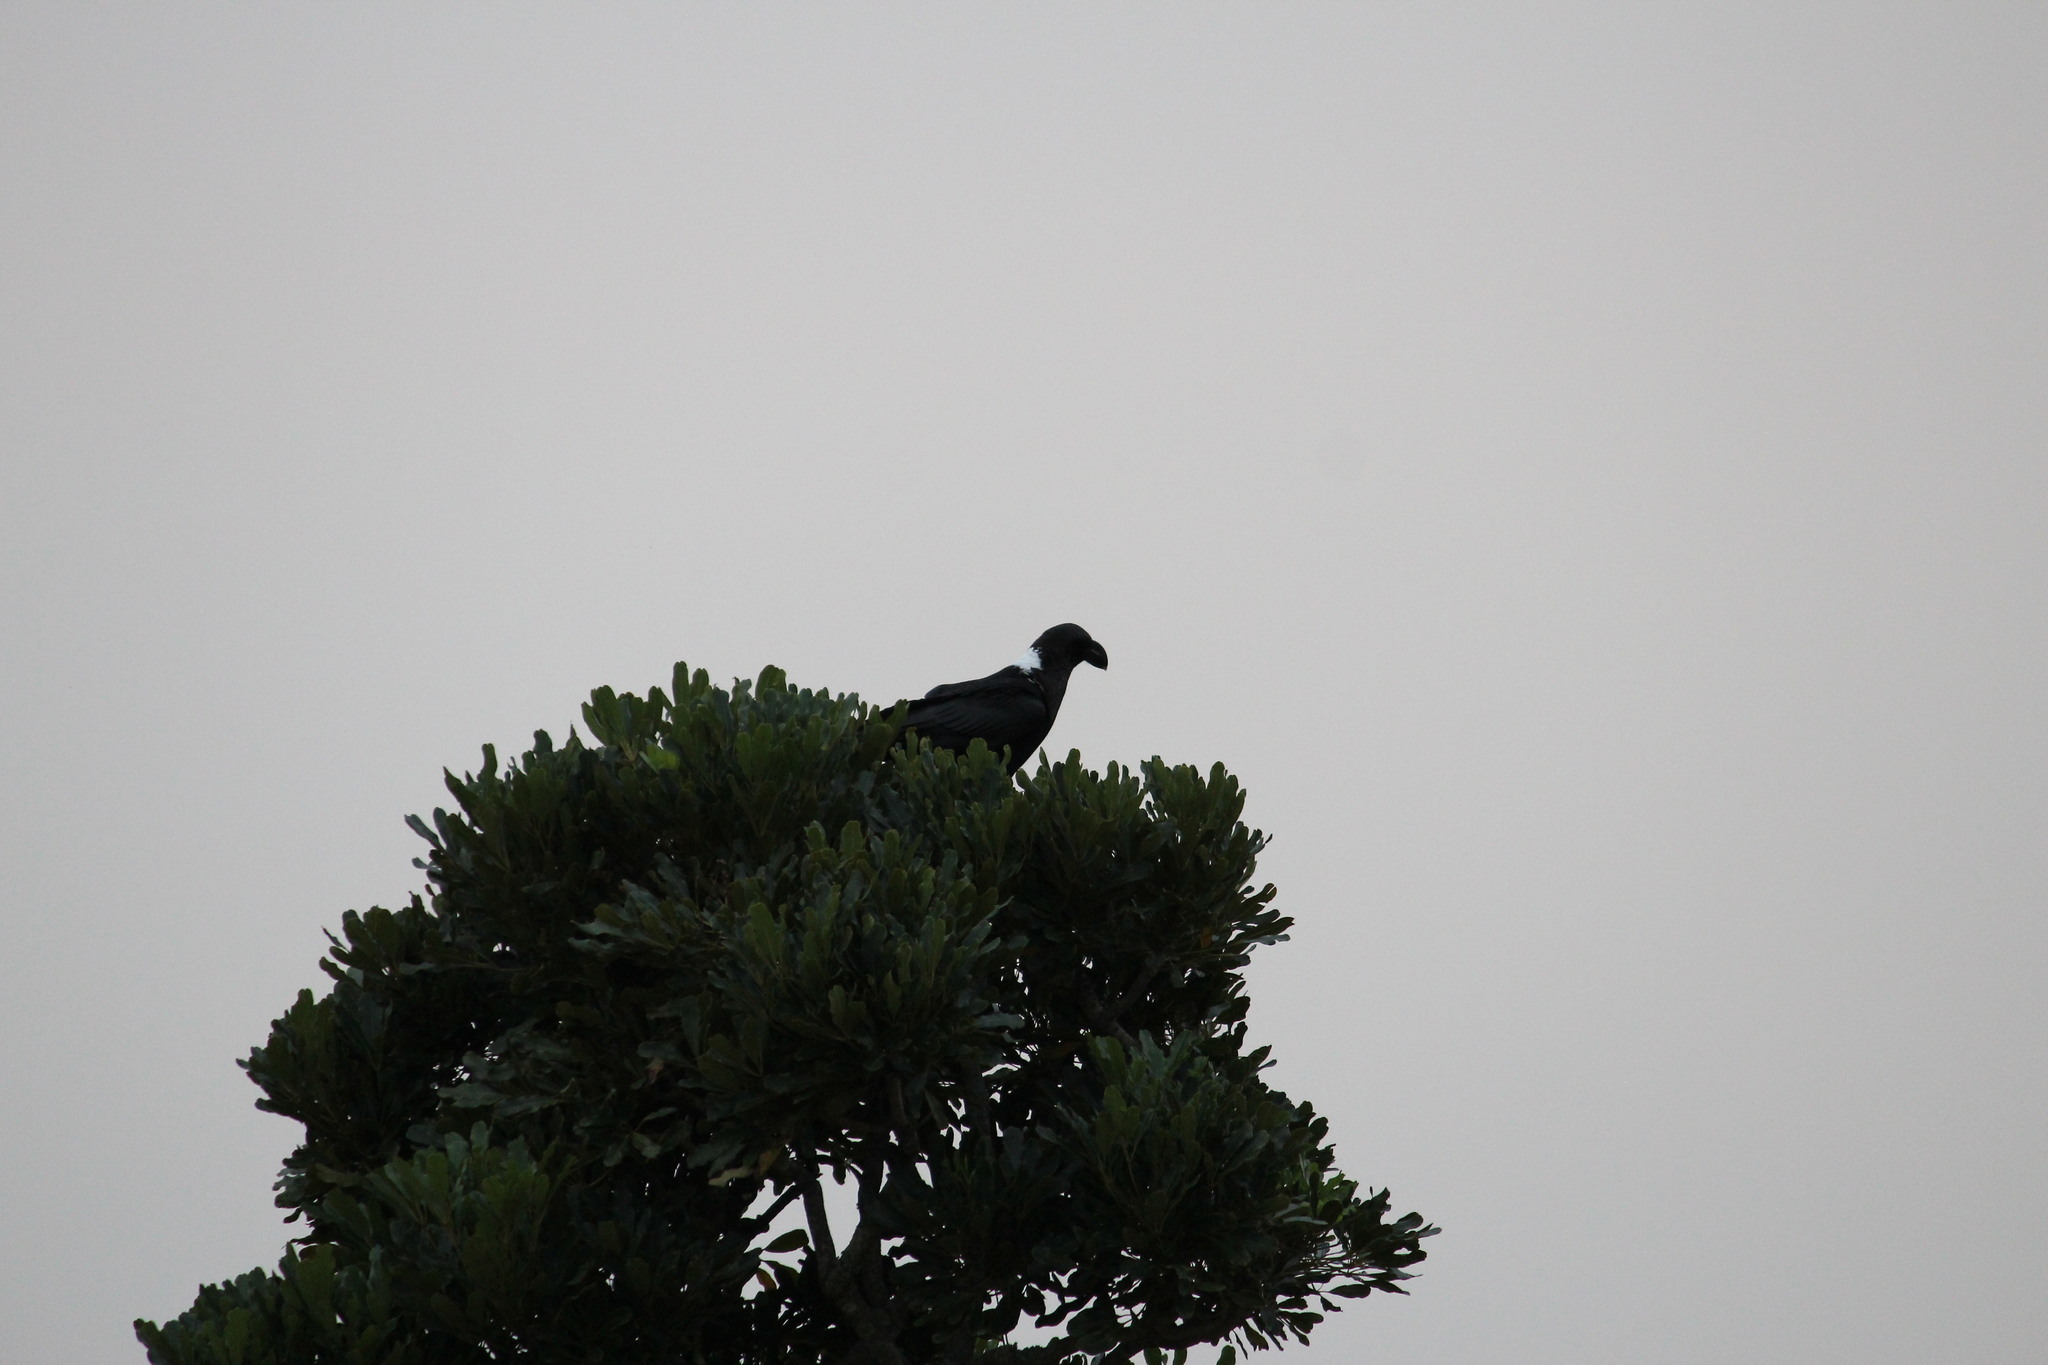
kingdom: Animalia
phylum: Chordata
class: Aves
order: Passeriformes
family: Corvidae
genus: Corvus
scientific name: Corvus albicollis
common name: White-necked raven
